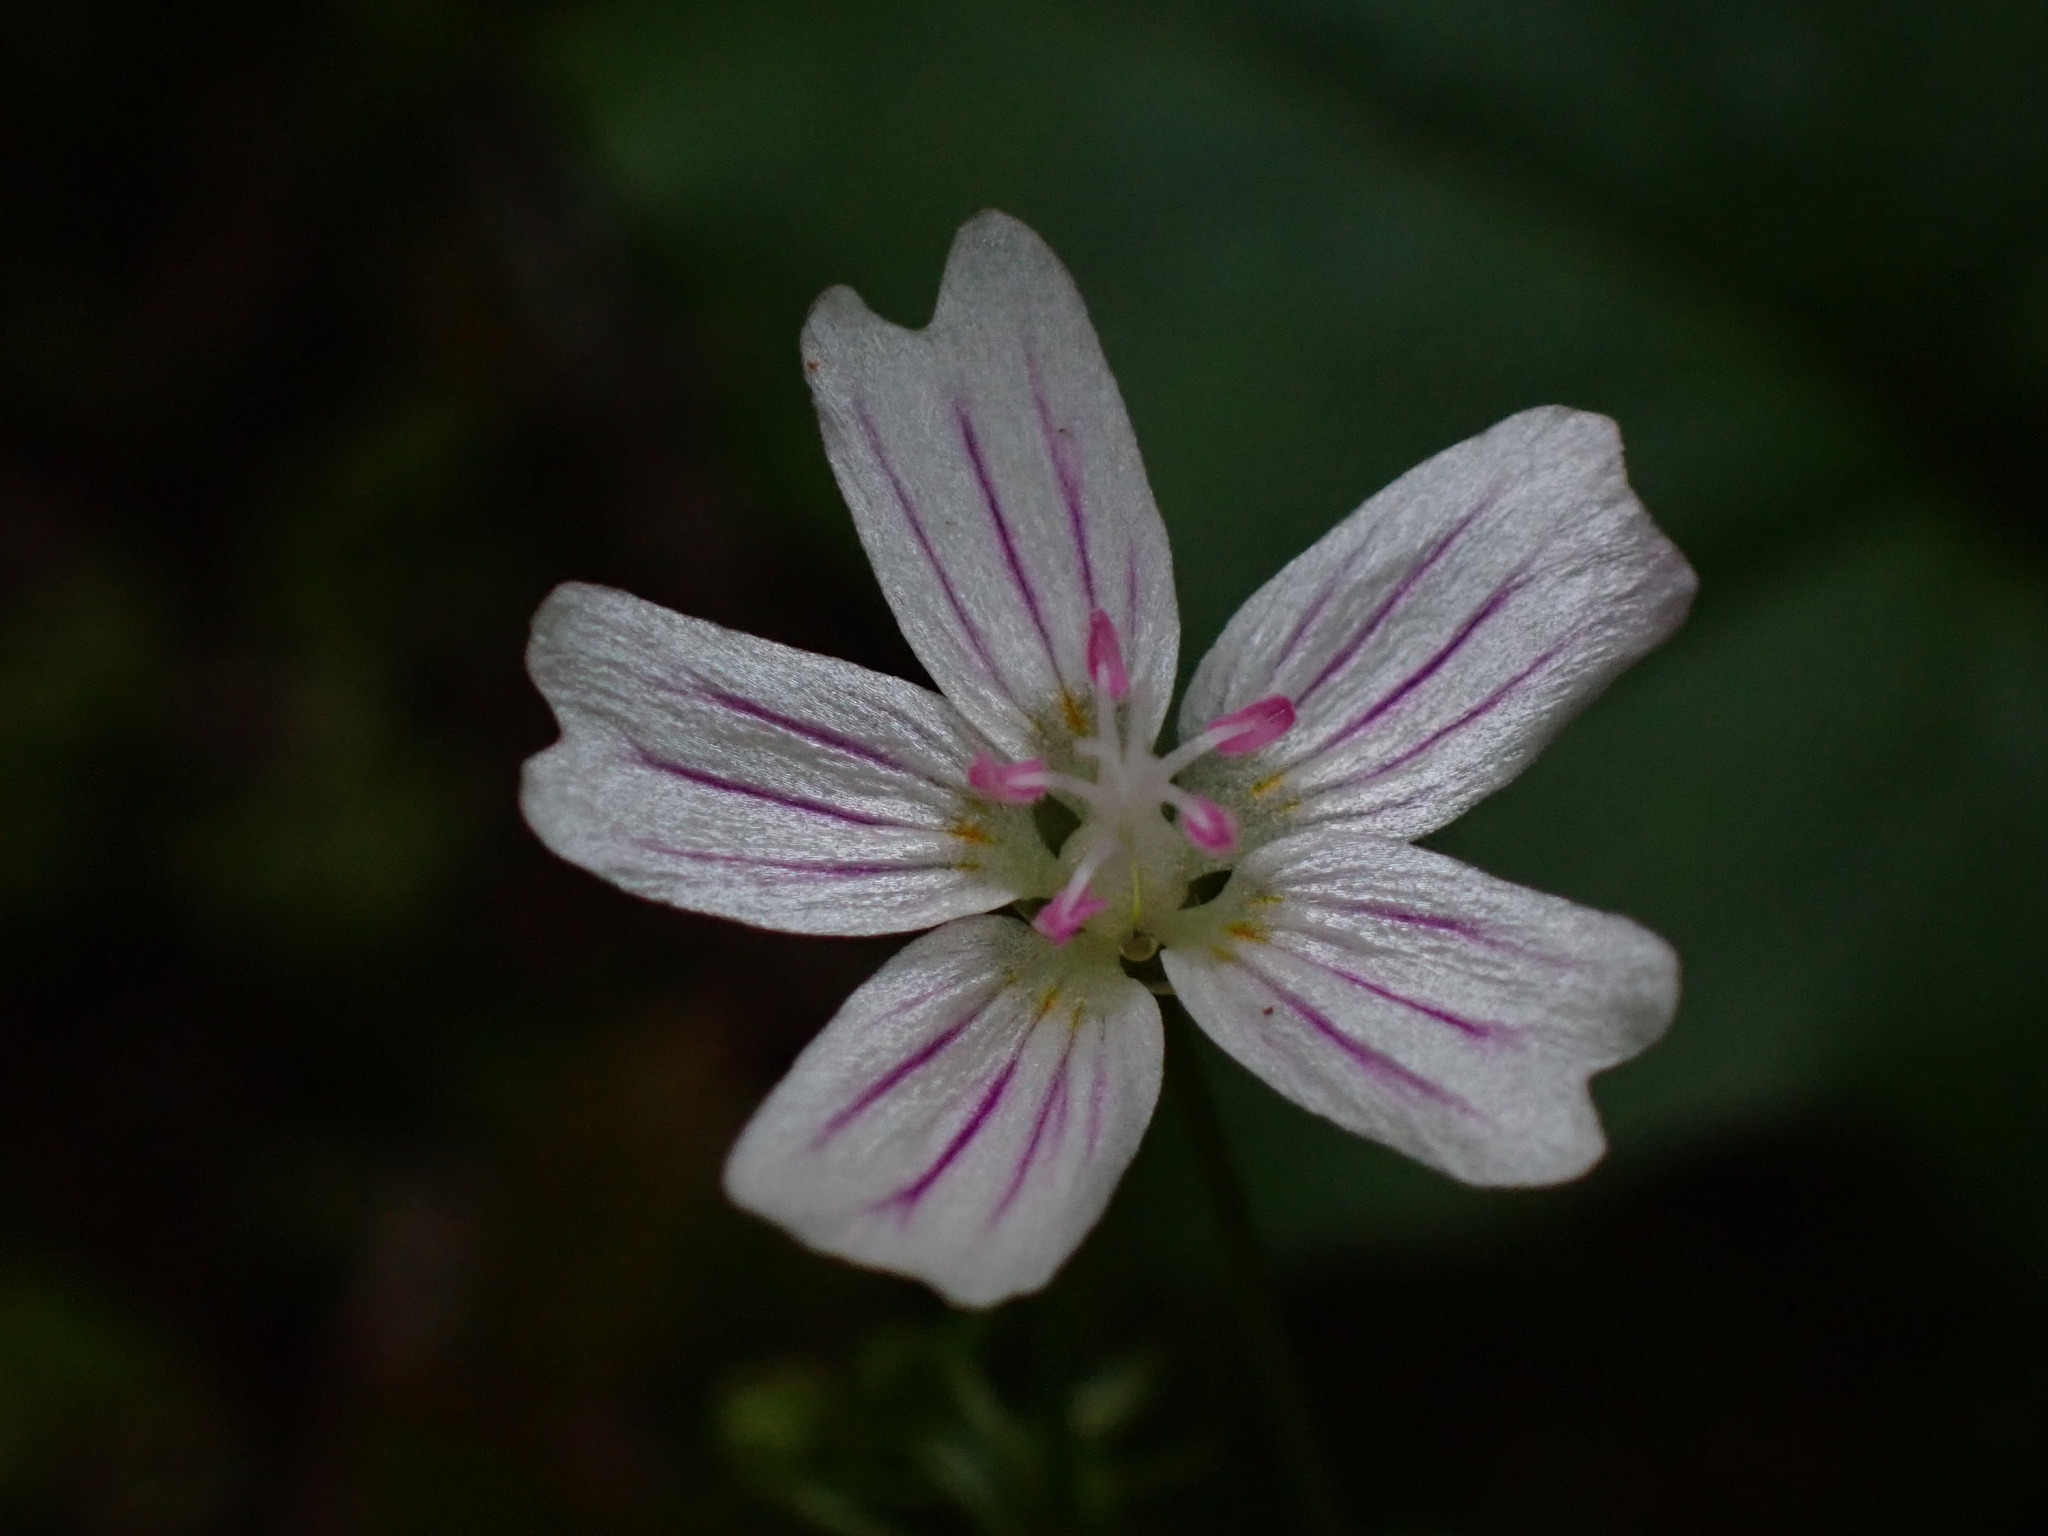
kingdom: Plantae
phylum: Tracheophyta
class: Magnoliopsida
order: Caryophyllales
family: Montiaceae
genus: Claytonia
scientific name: Claytonia sibirica
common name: Pink purslane
